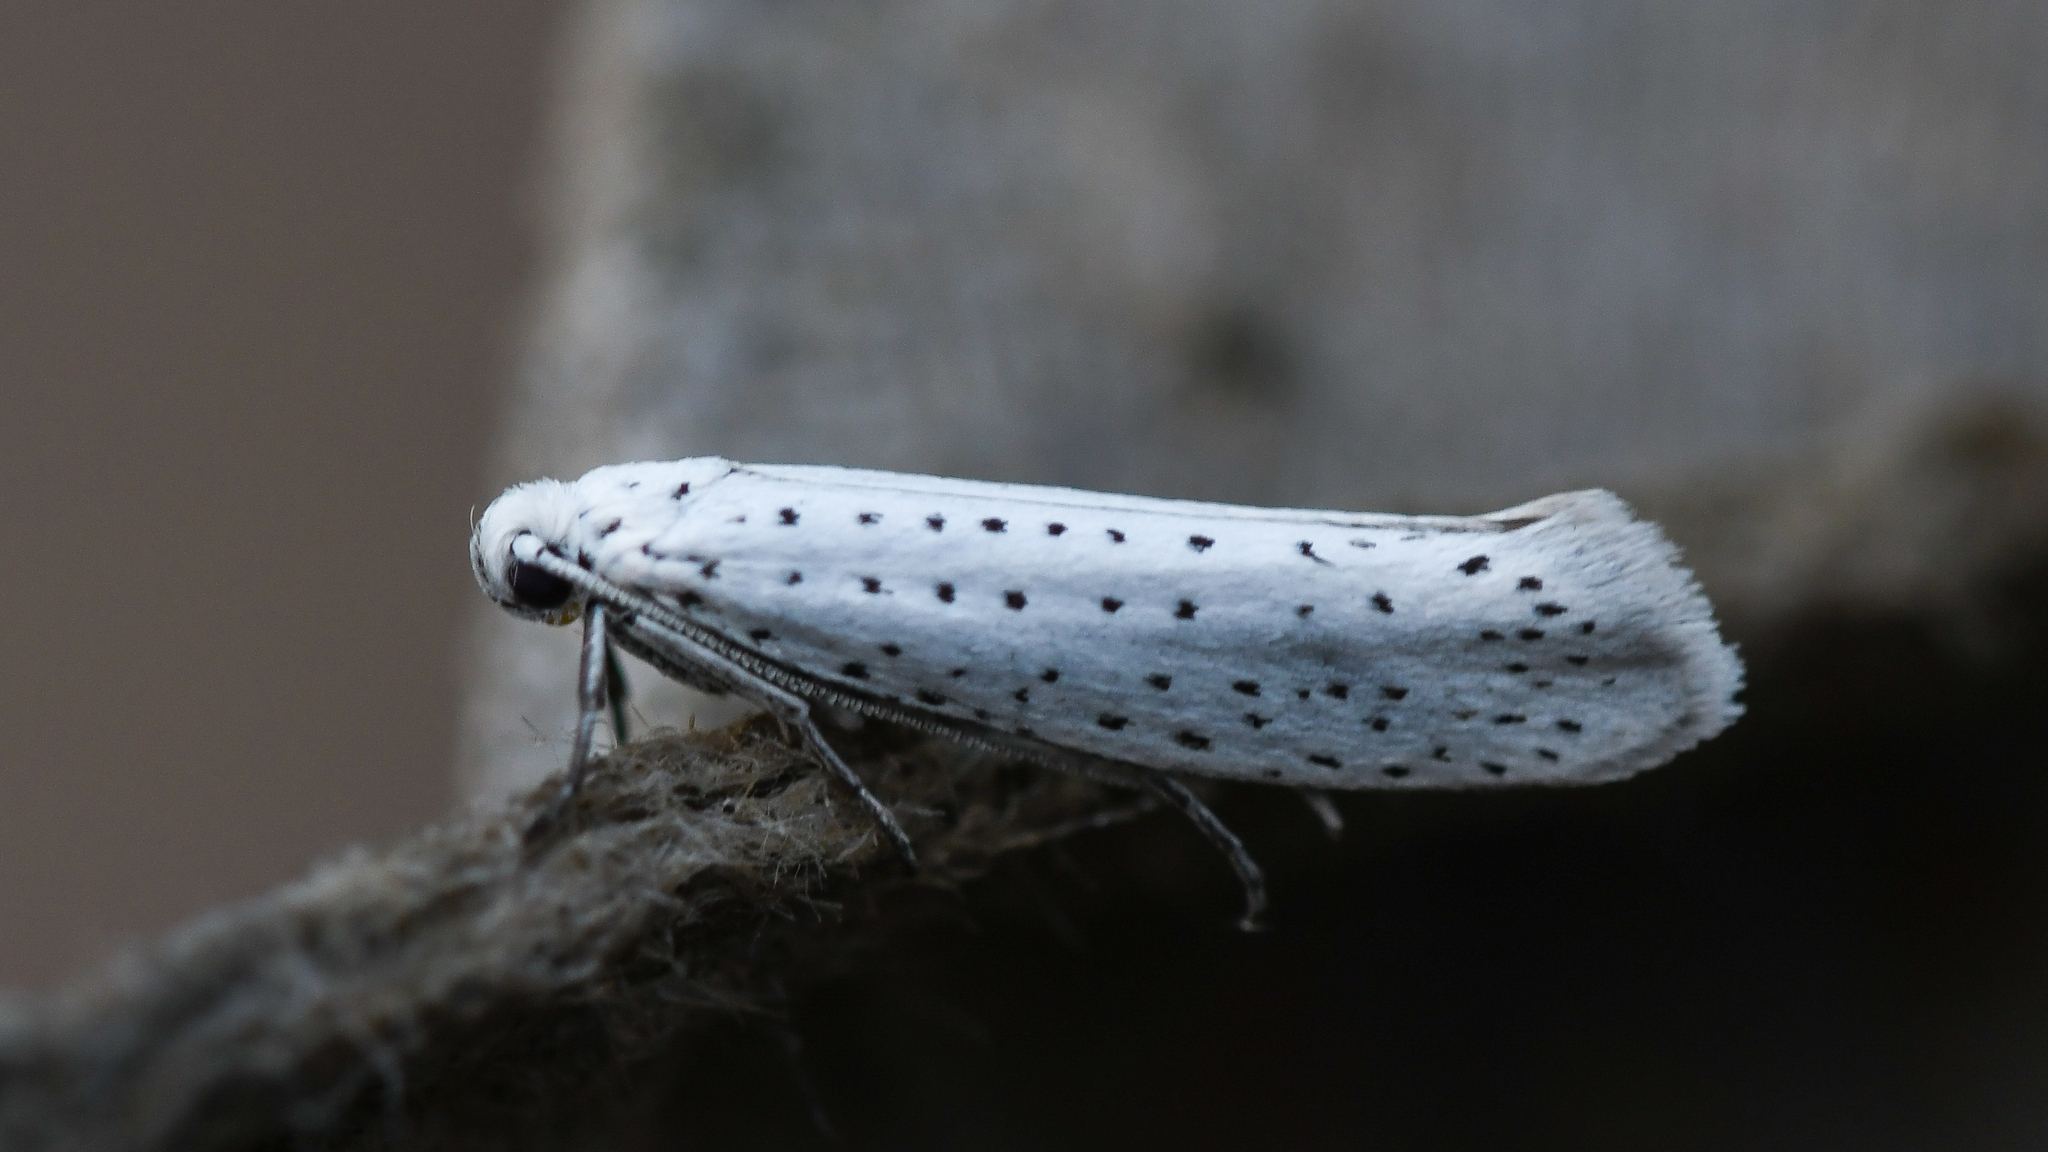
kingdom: Animalia
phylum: Arthropoda
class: Insecta
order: Lepidoptera
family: Yponomeutidae
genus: Yponomeuta
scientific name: Yponomeuta evonymella
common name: Bird-cherry ermine
